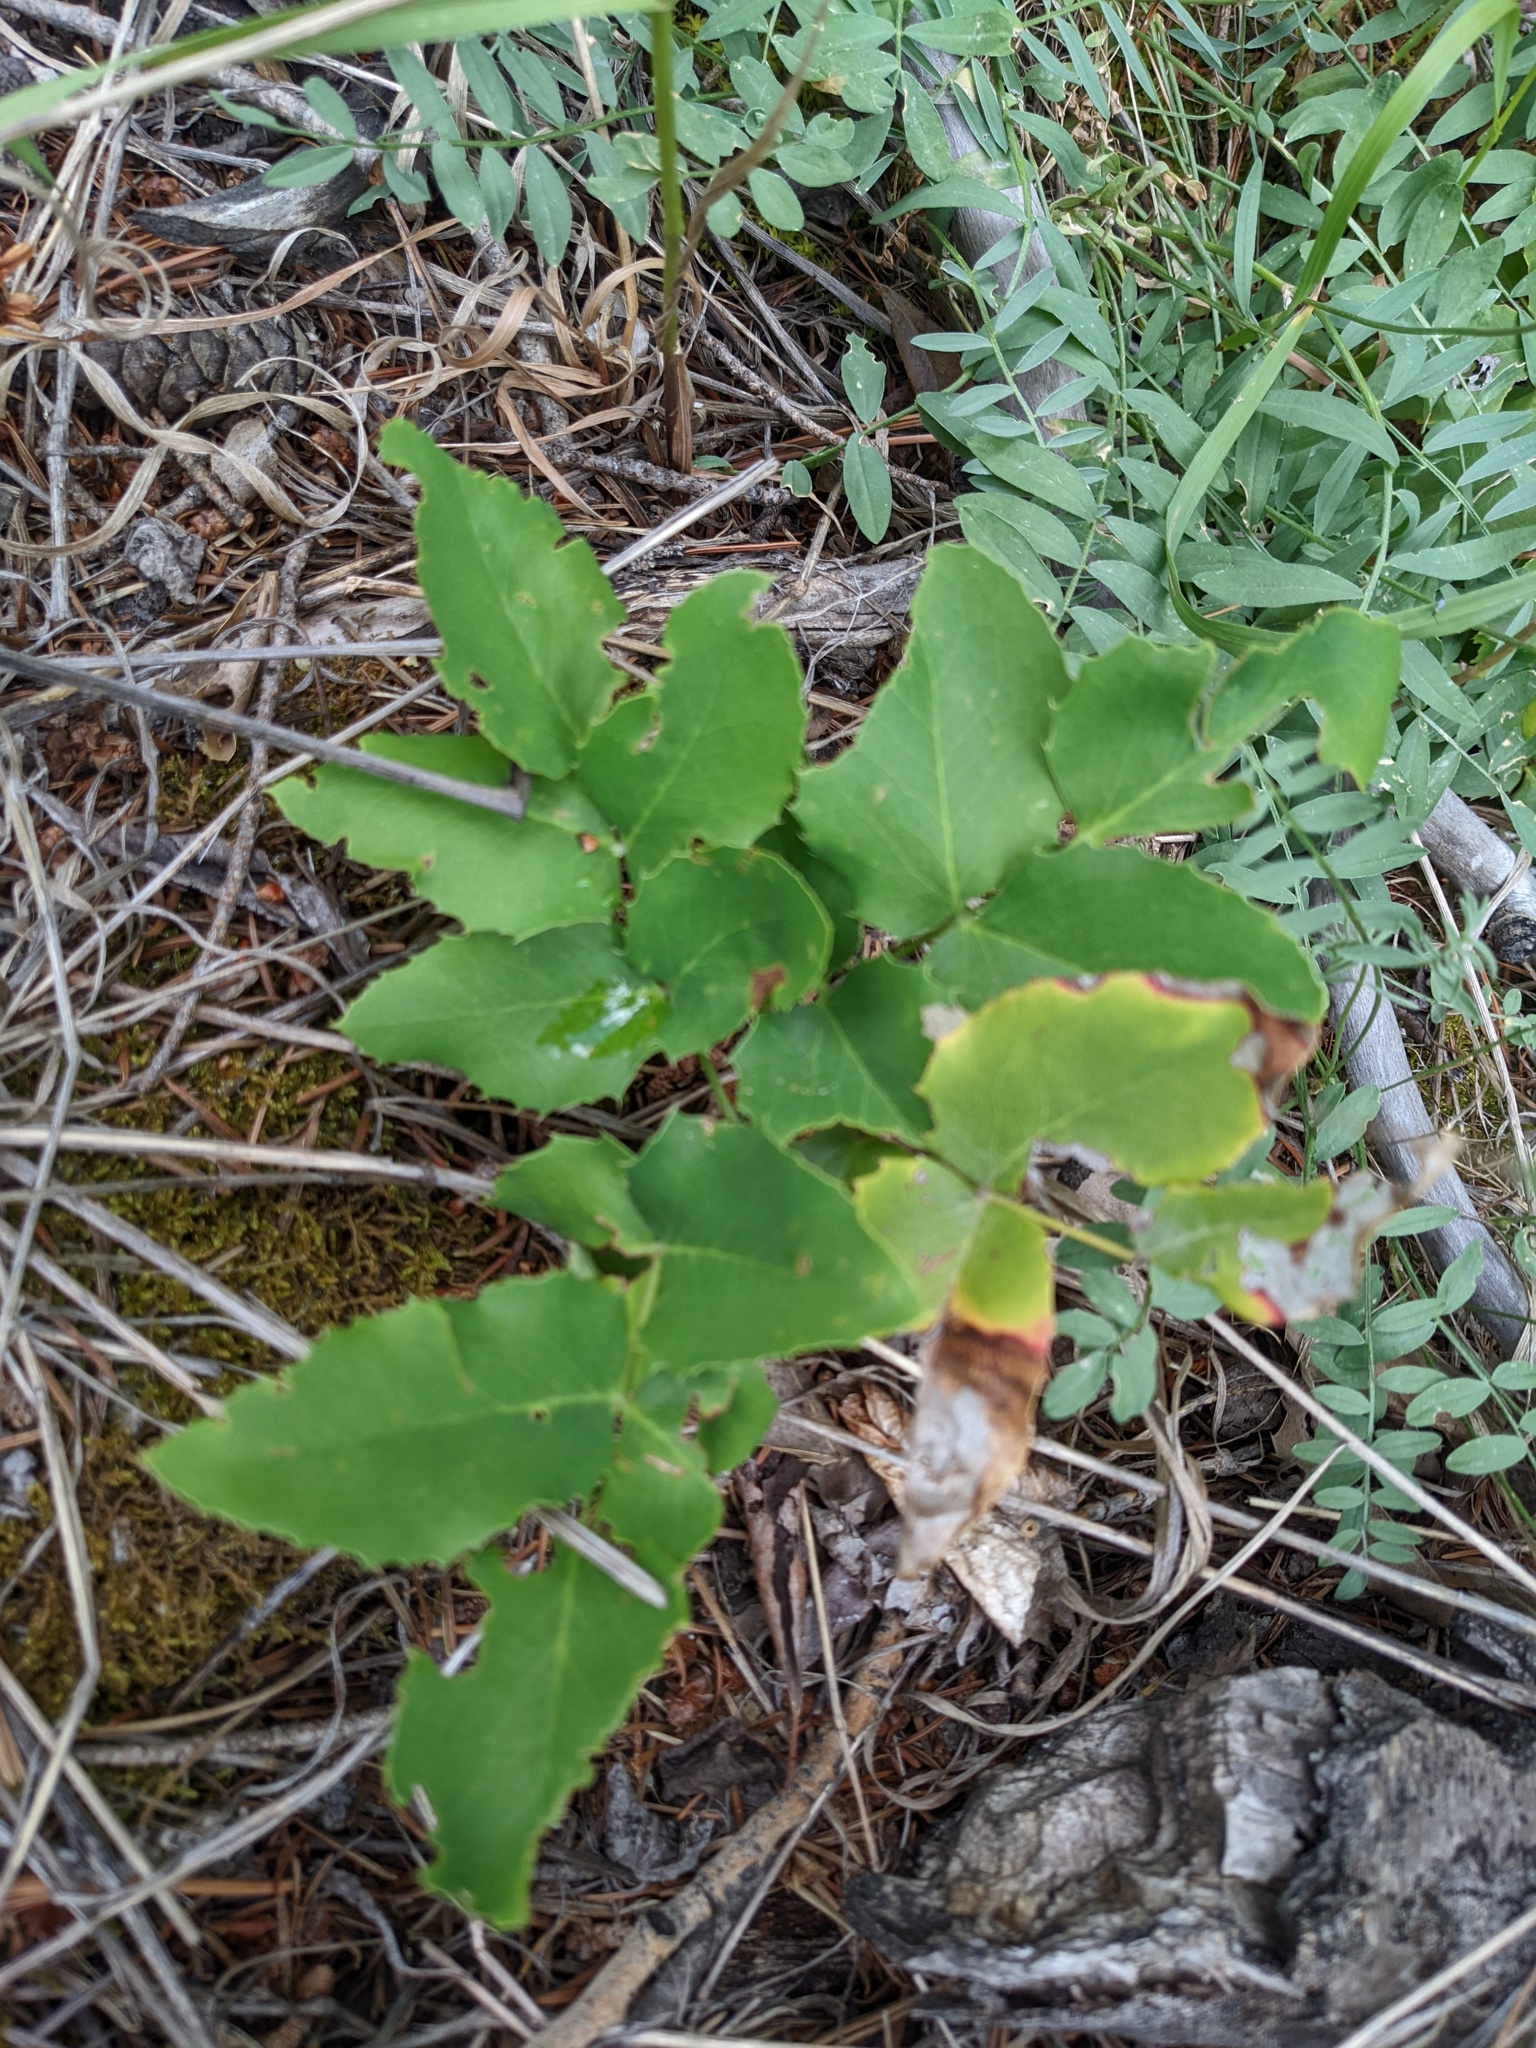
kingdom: Plantae
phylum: Tracheophyta
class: Magnoliopsida
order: Ranunculales
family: Berberidaceae
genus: Mahonia
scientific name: Mahonia repens
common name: Creeping oregon-grape
